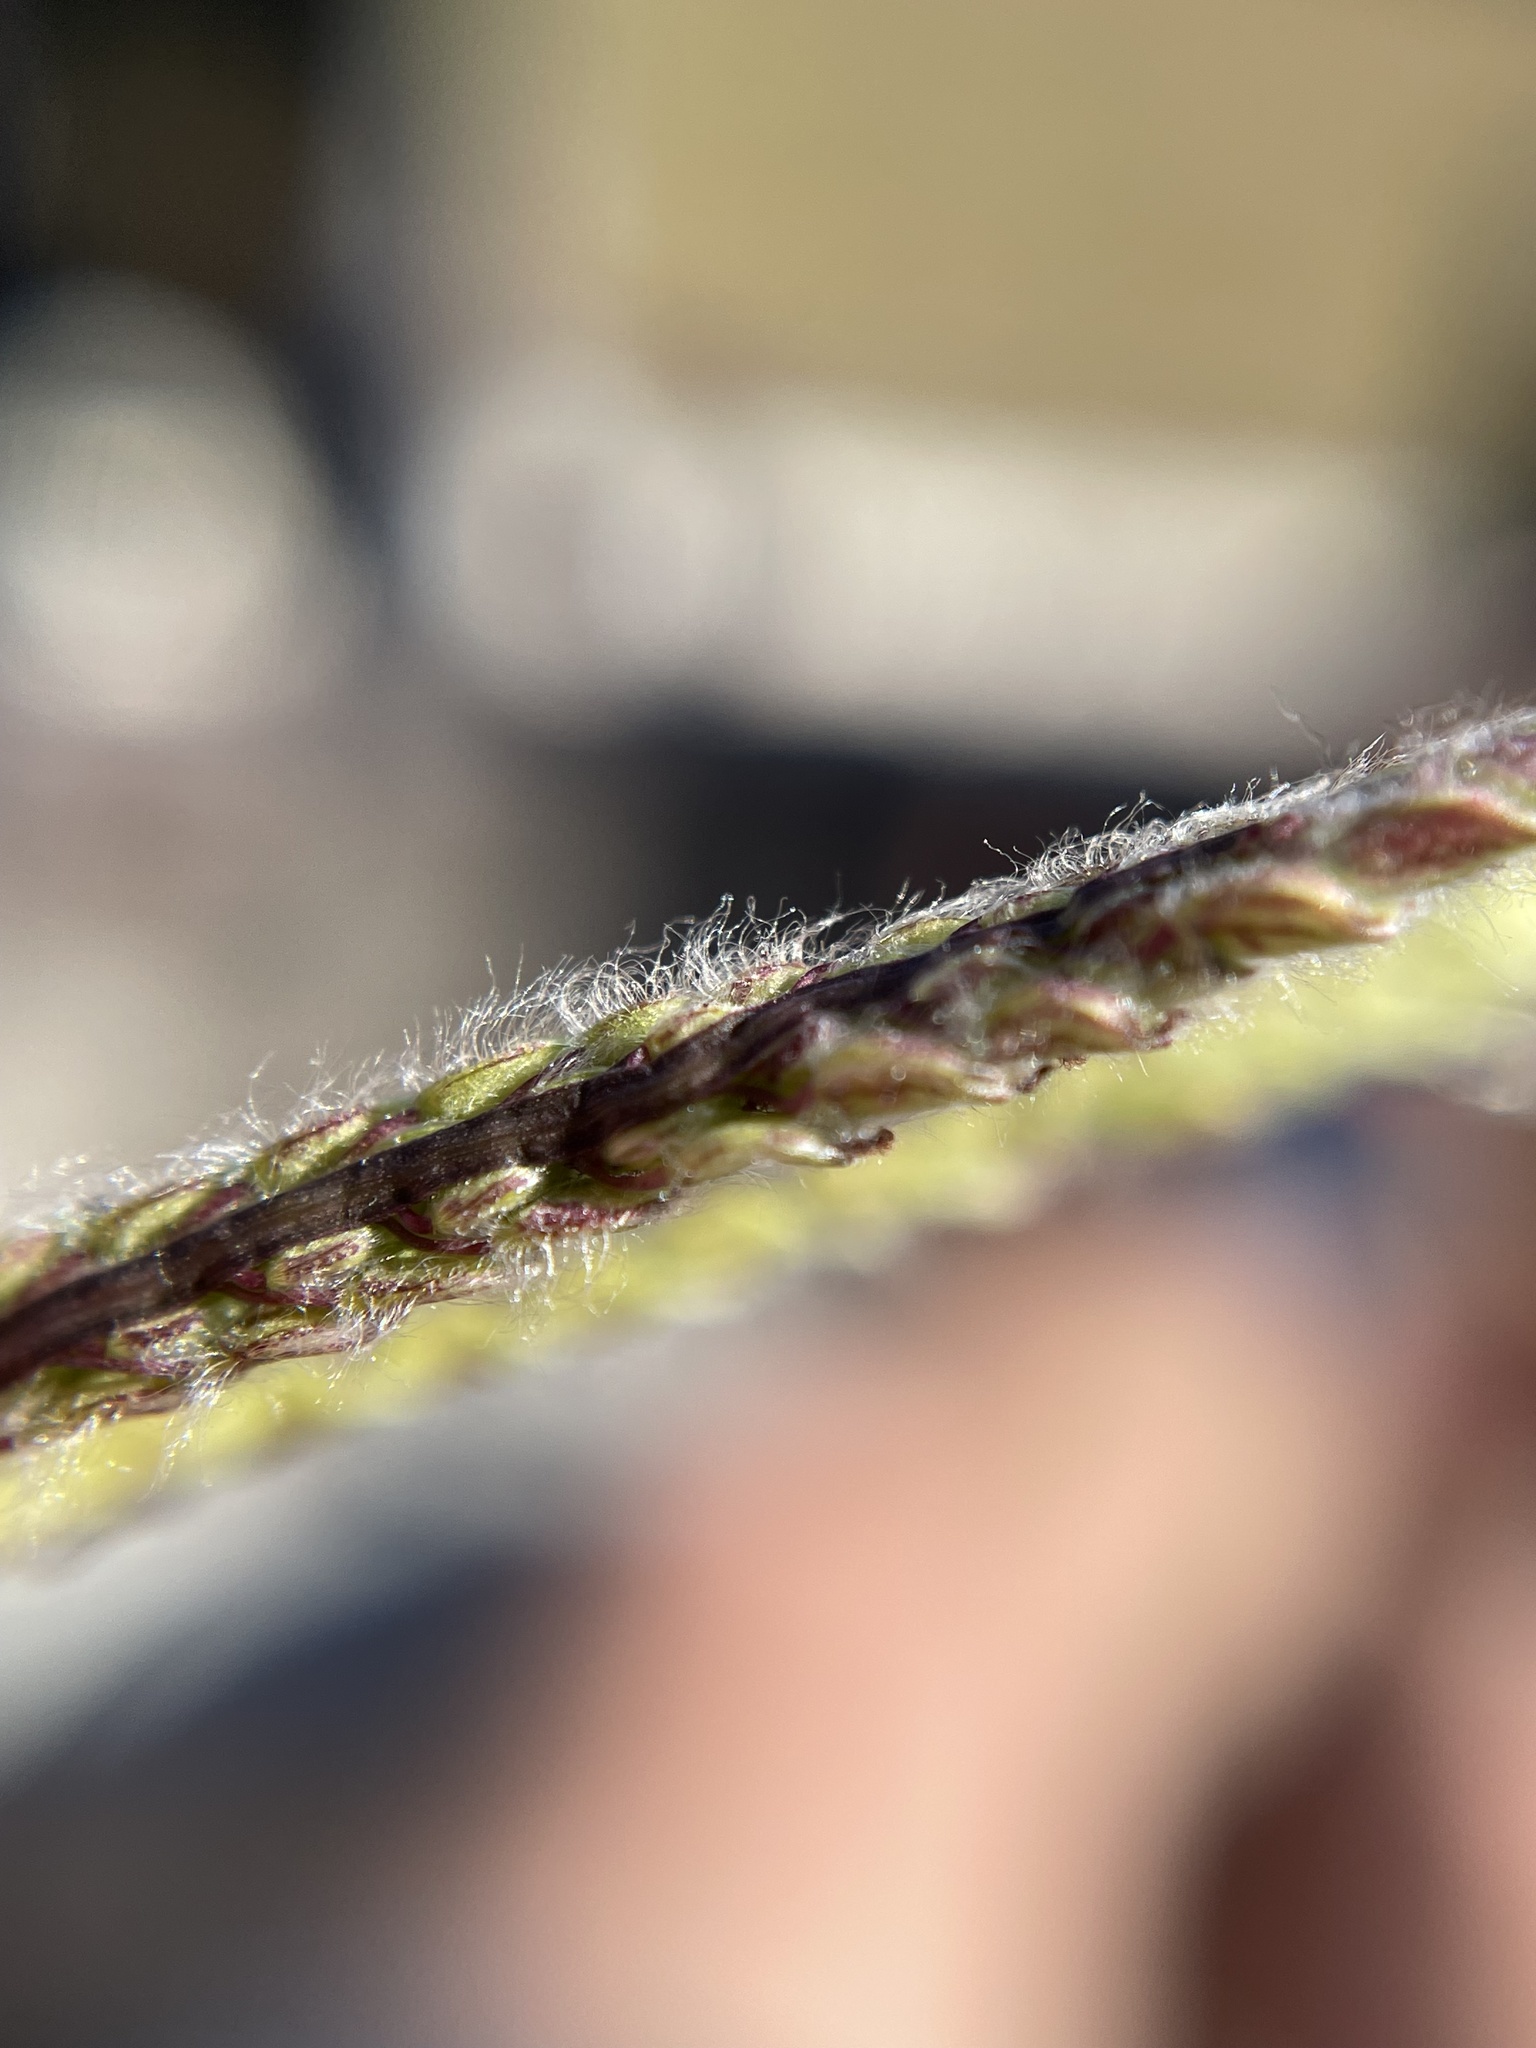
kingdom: Plantae
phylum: Tracheophyta
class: Liliopsida
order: Poales
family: Poaceae
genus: Paspalum
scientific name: Paspalum dilatatum
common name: Dallisgrass
